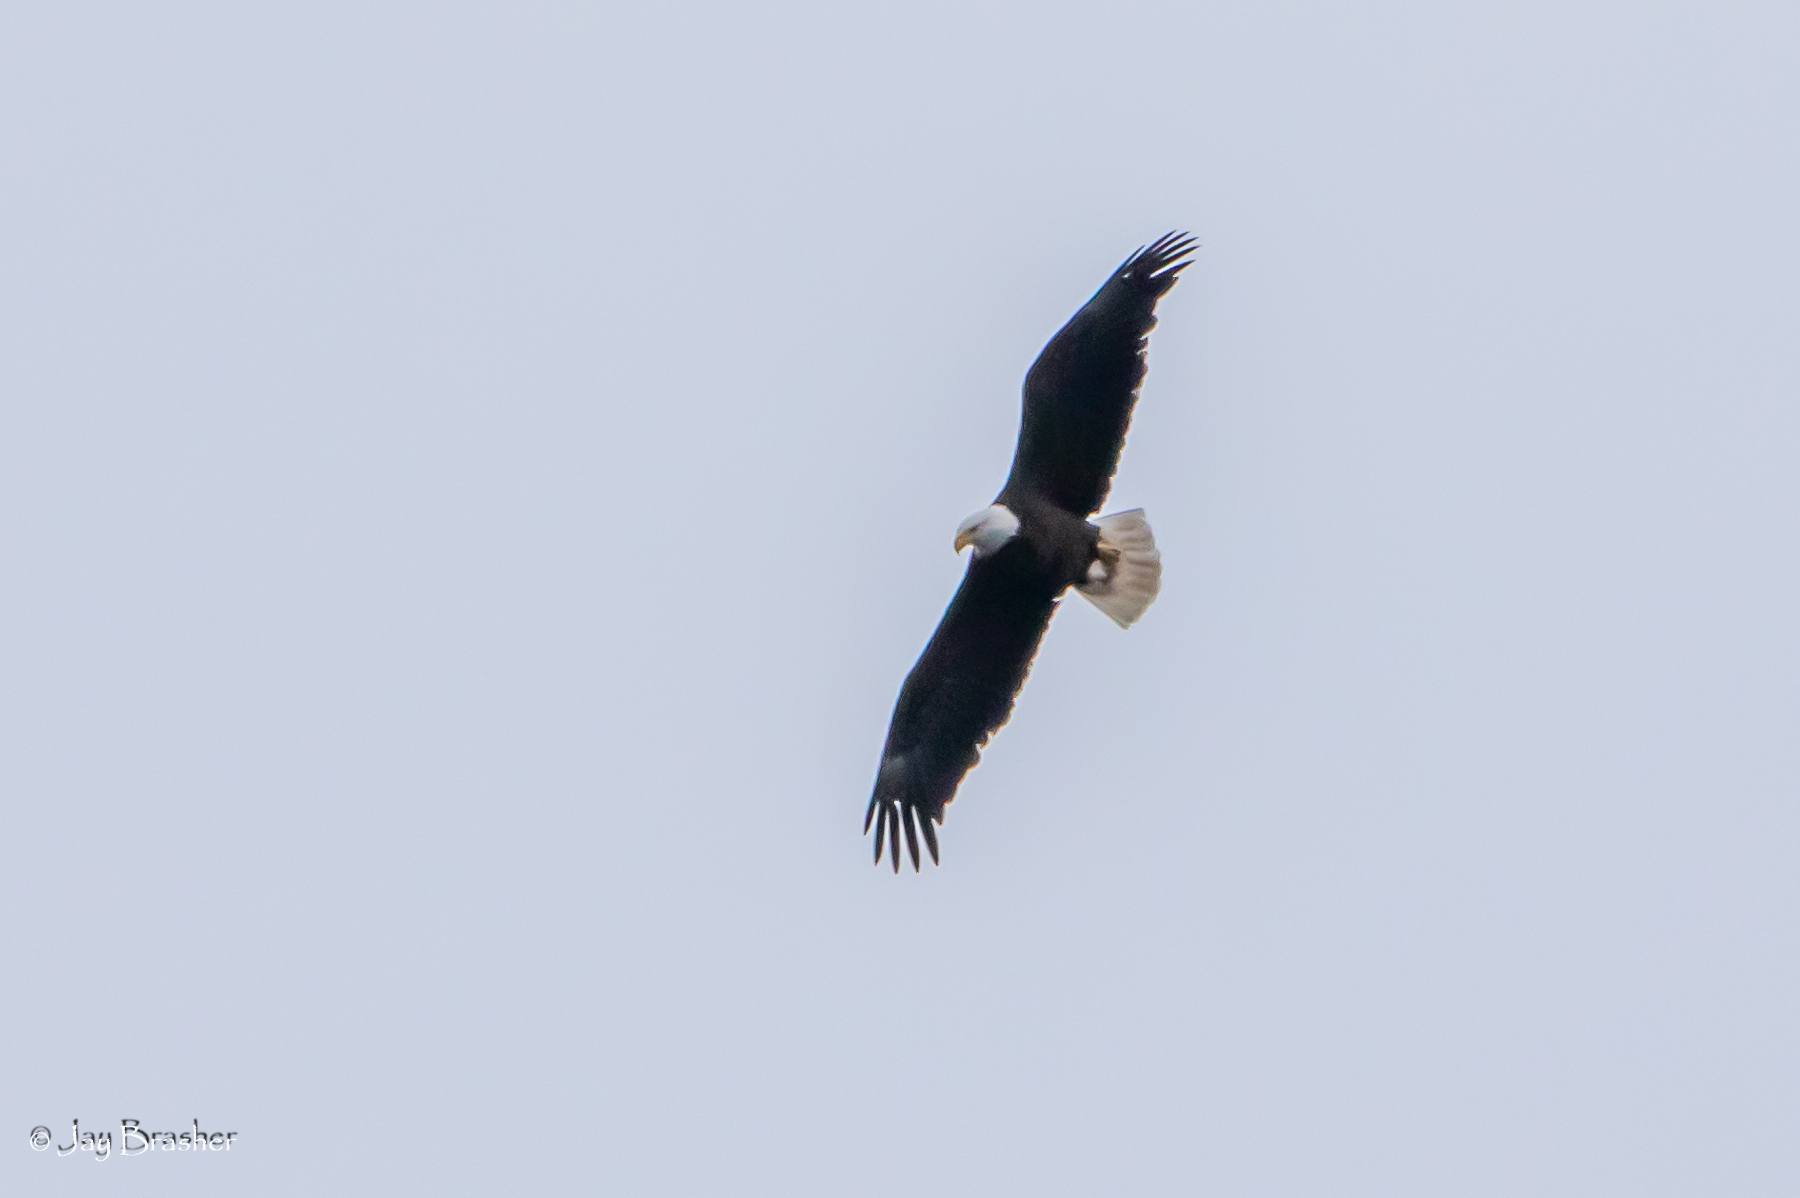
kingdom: Animalia
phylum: Chordata
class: Aves
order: Accipitriformes
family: Accipitridae
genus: Haliaeetus
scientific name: Haliaeetus leucocephalus
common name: Bald eagle
